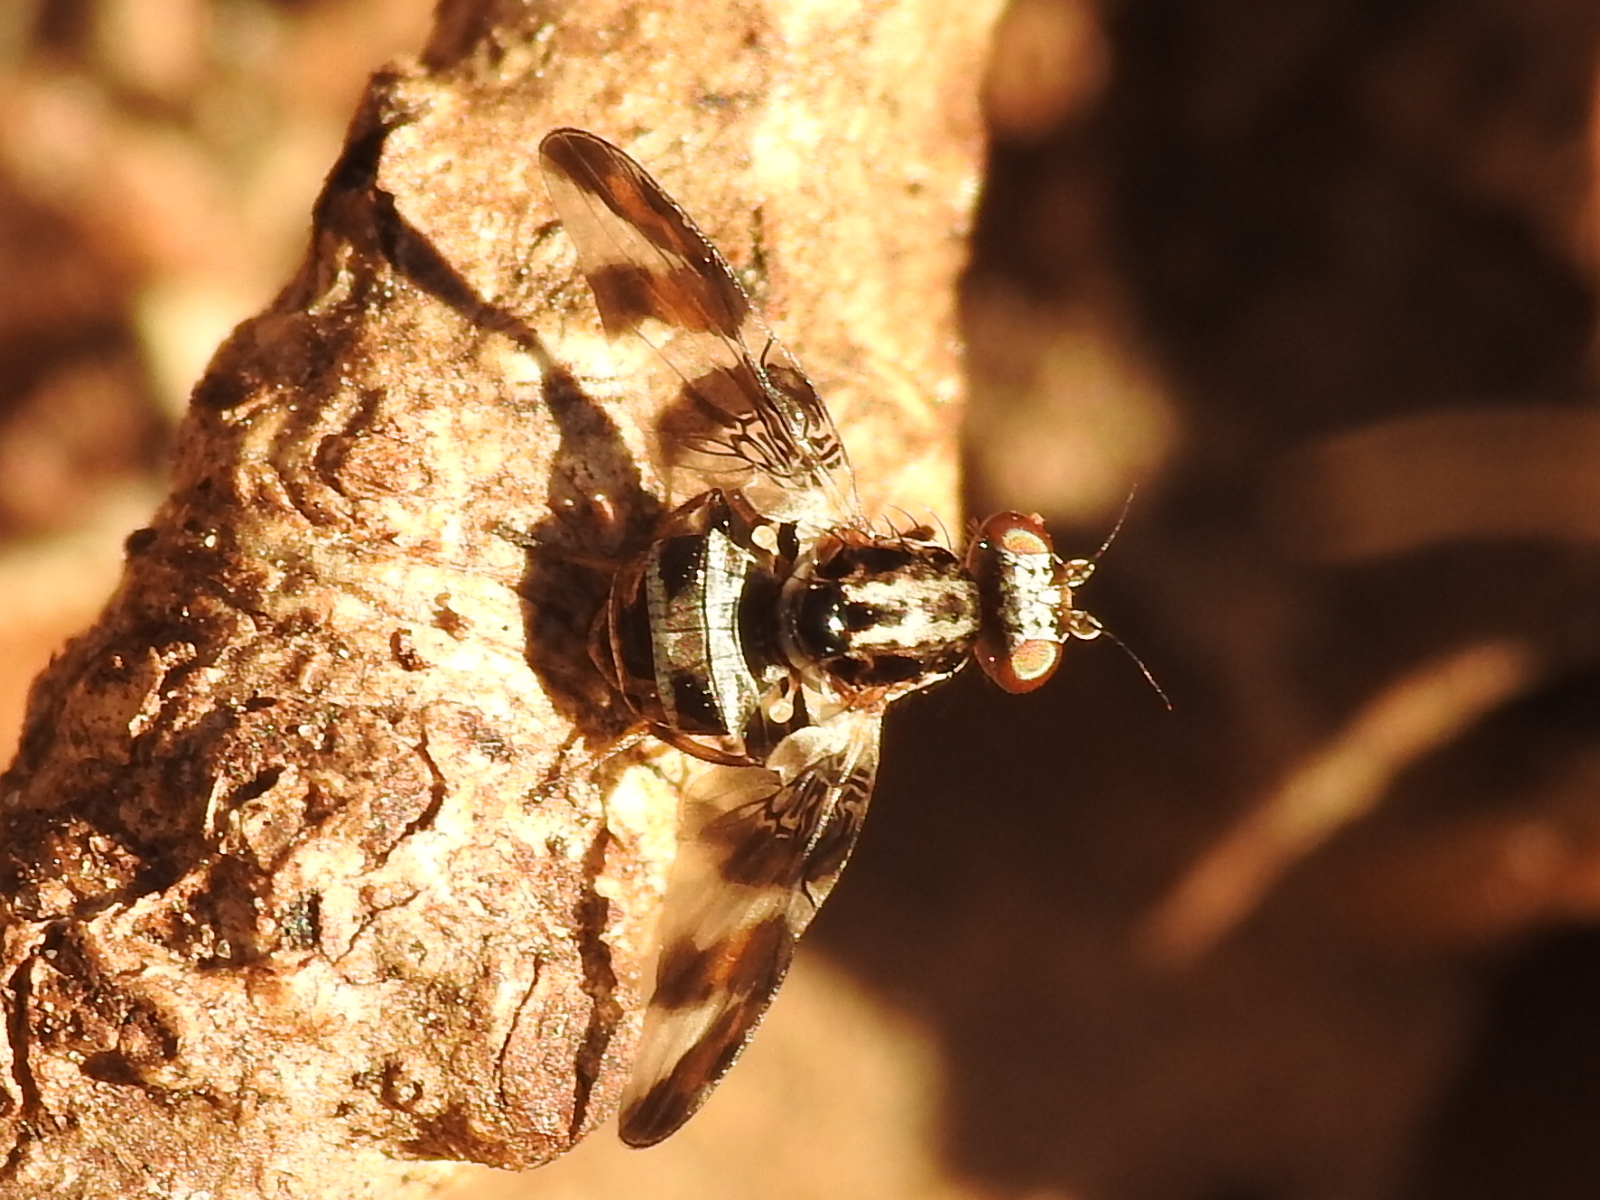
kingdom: Animalia
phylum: Arthropoda
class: Insecta
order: Diptera
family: Ulidiidae
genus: Dyscrasis
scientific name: Dyscrasis hendeli
